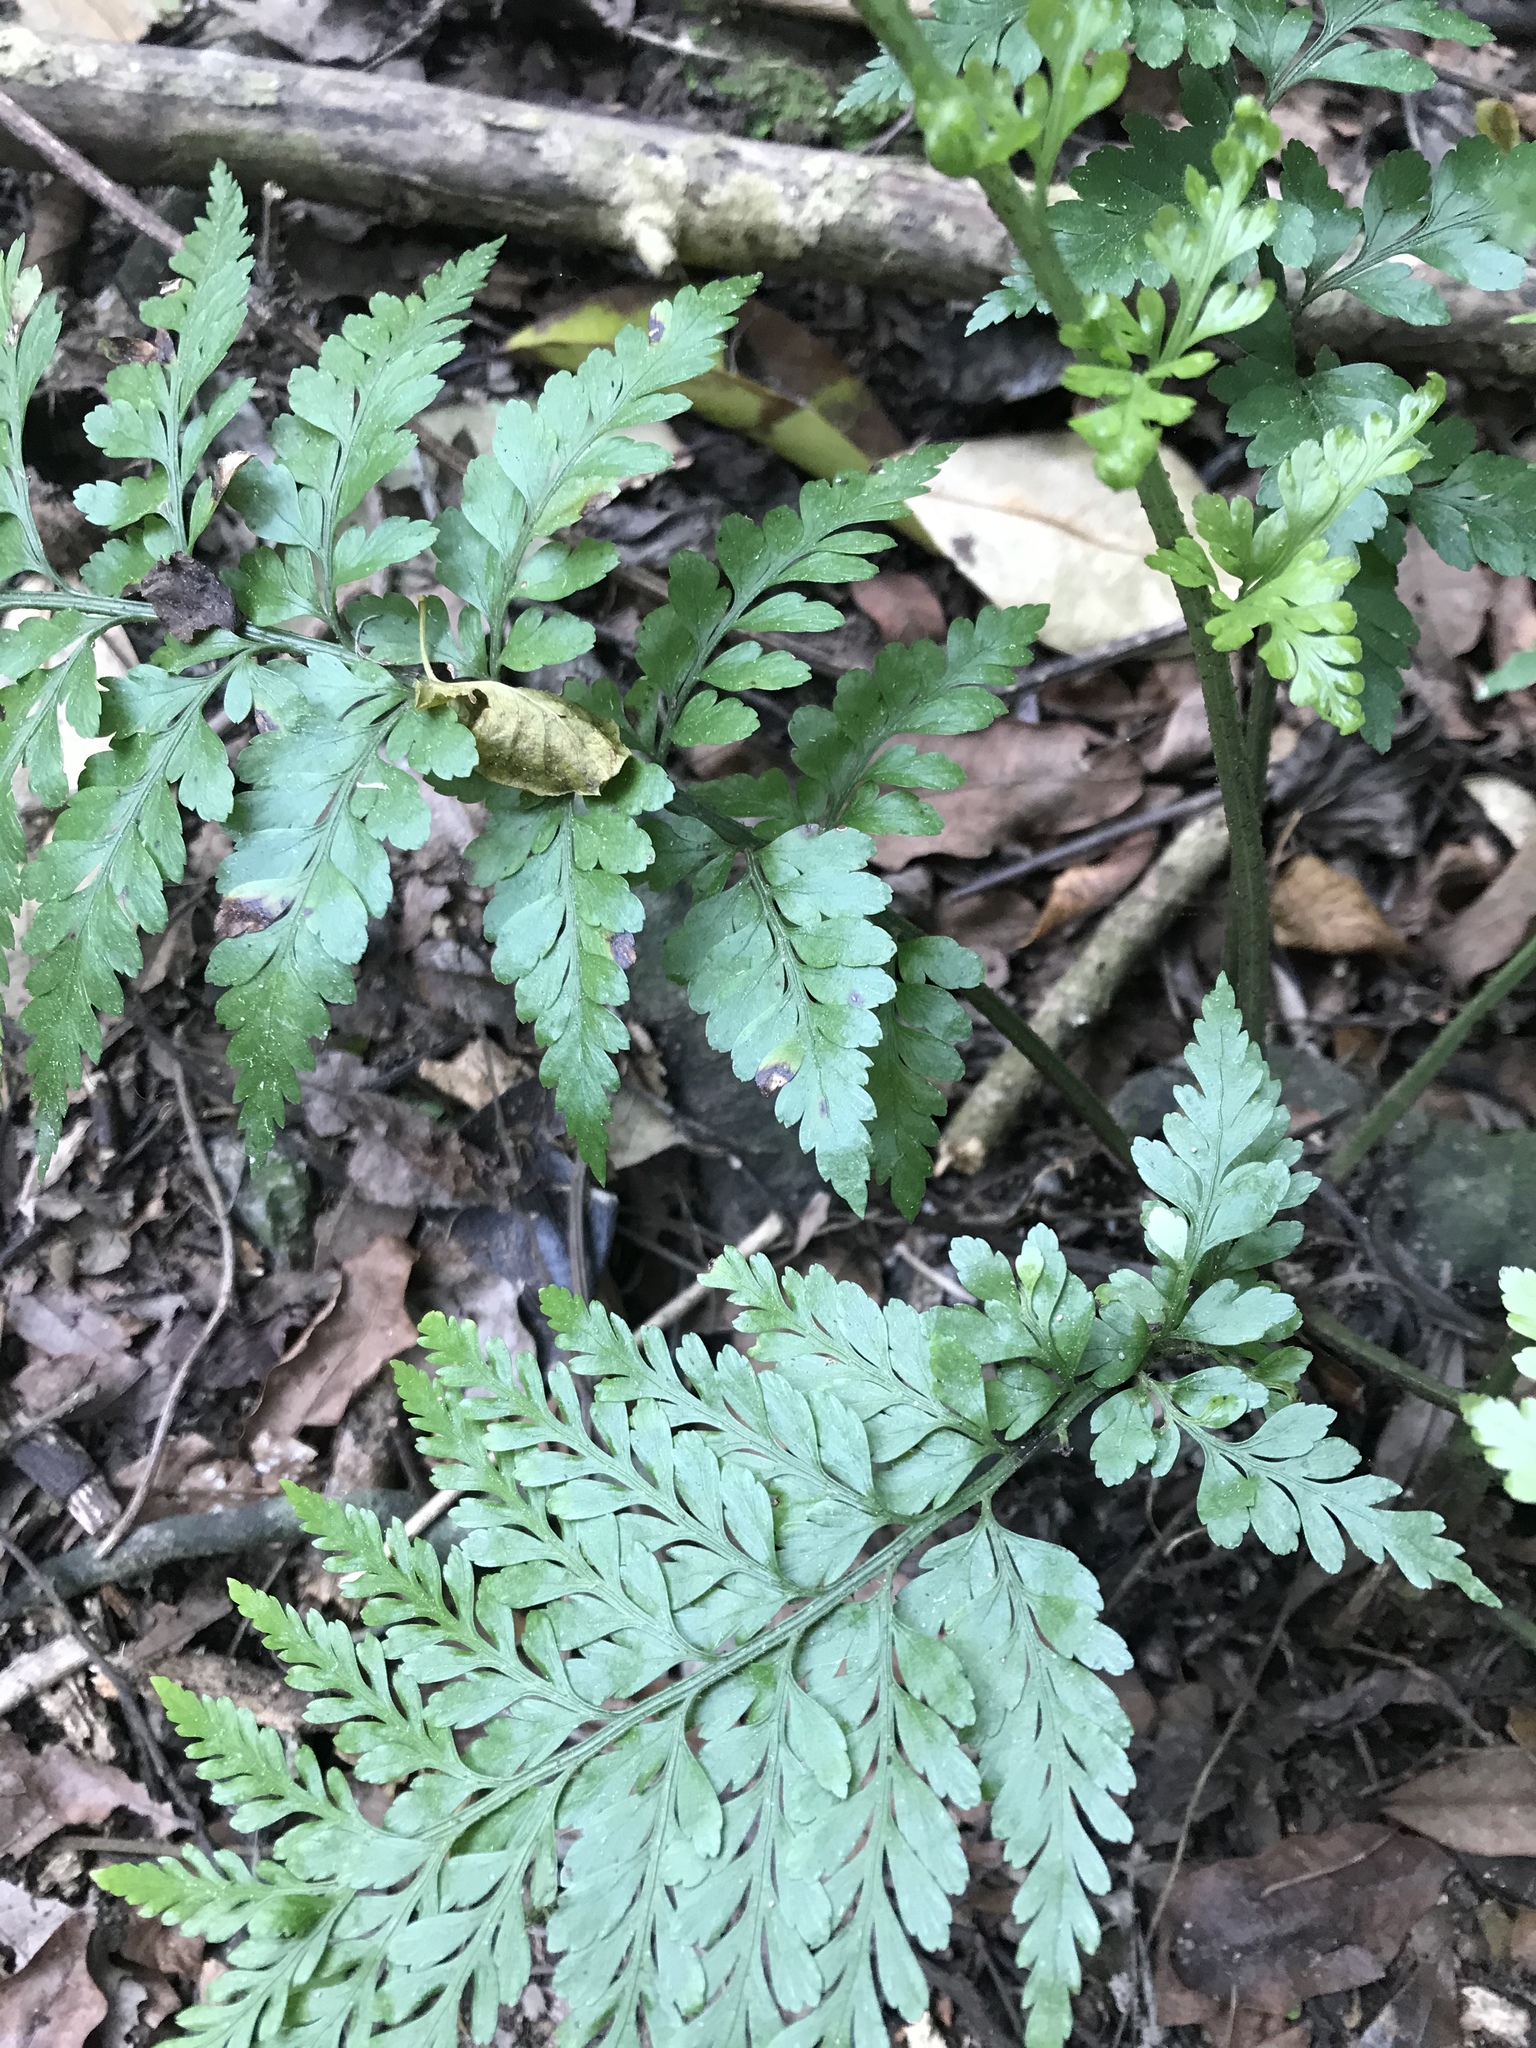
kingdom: Plantae
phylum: Tracheophyta
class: Polypodiopsida
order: Polypodiales
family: Aspleniaceae
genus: Asplenium
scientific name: Asplenium
